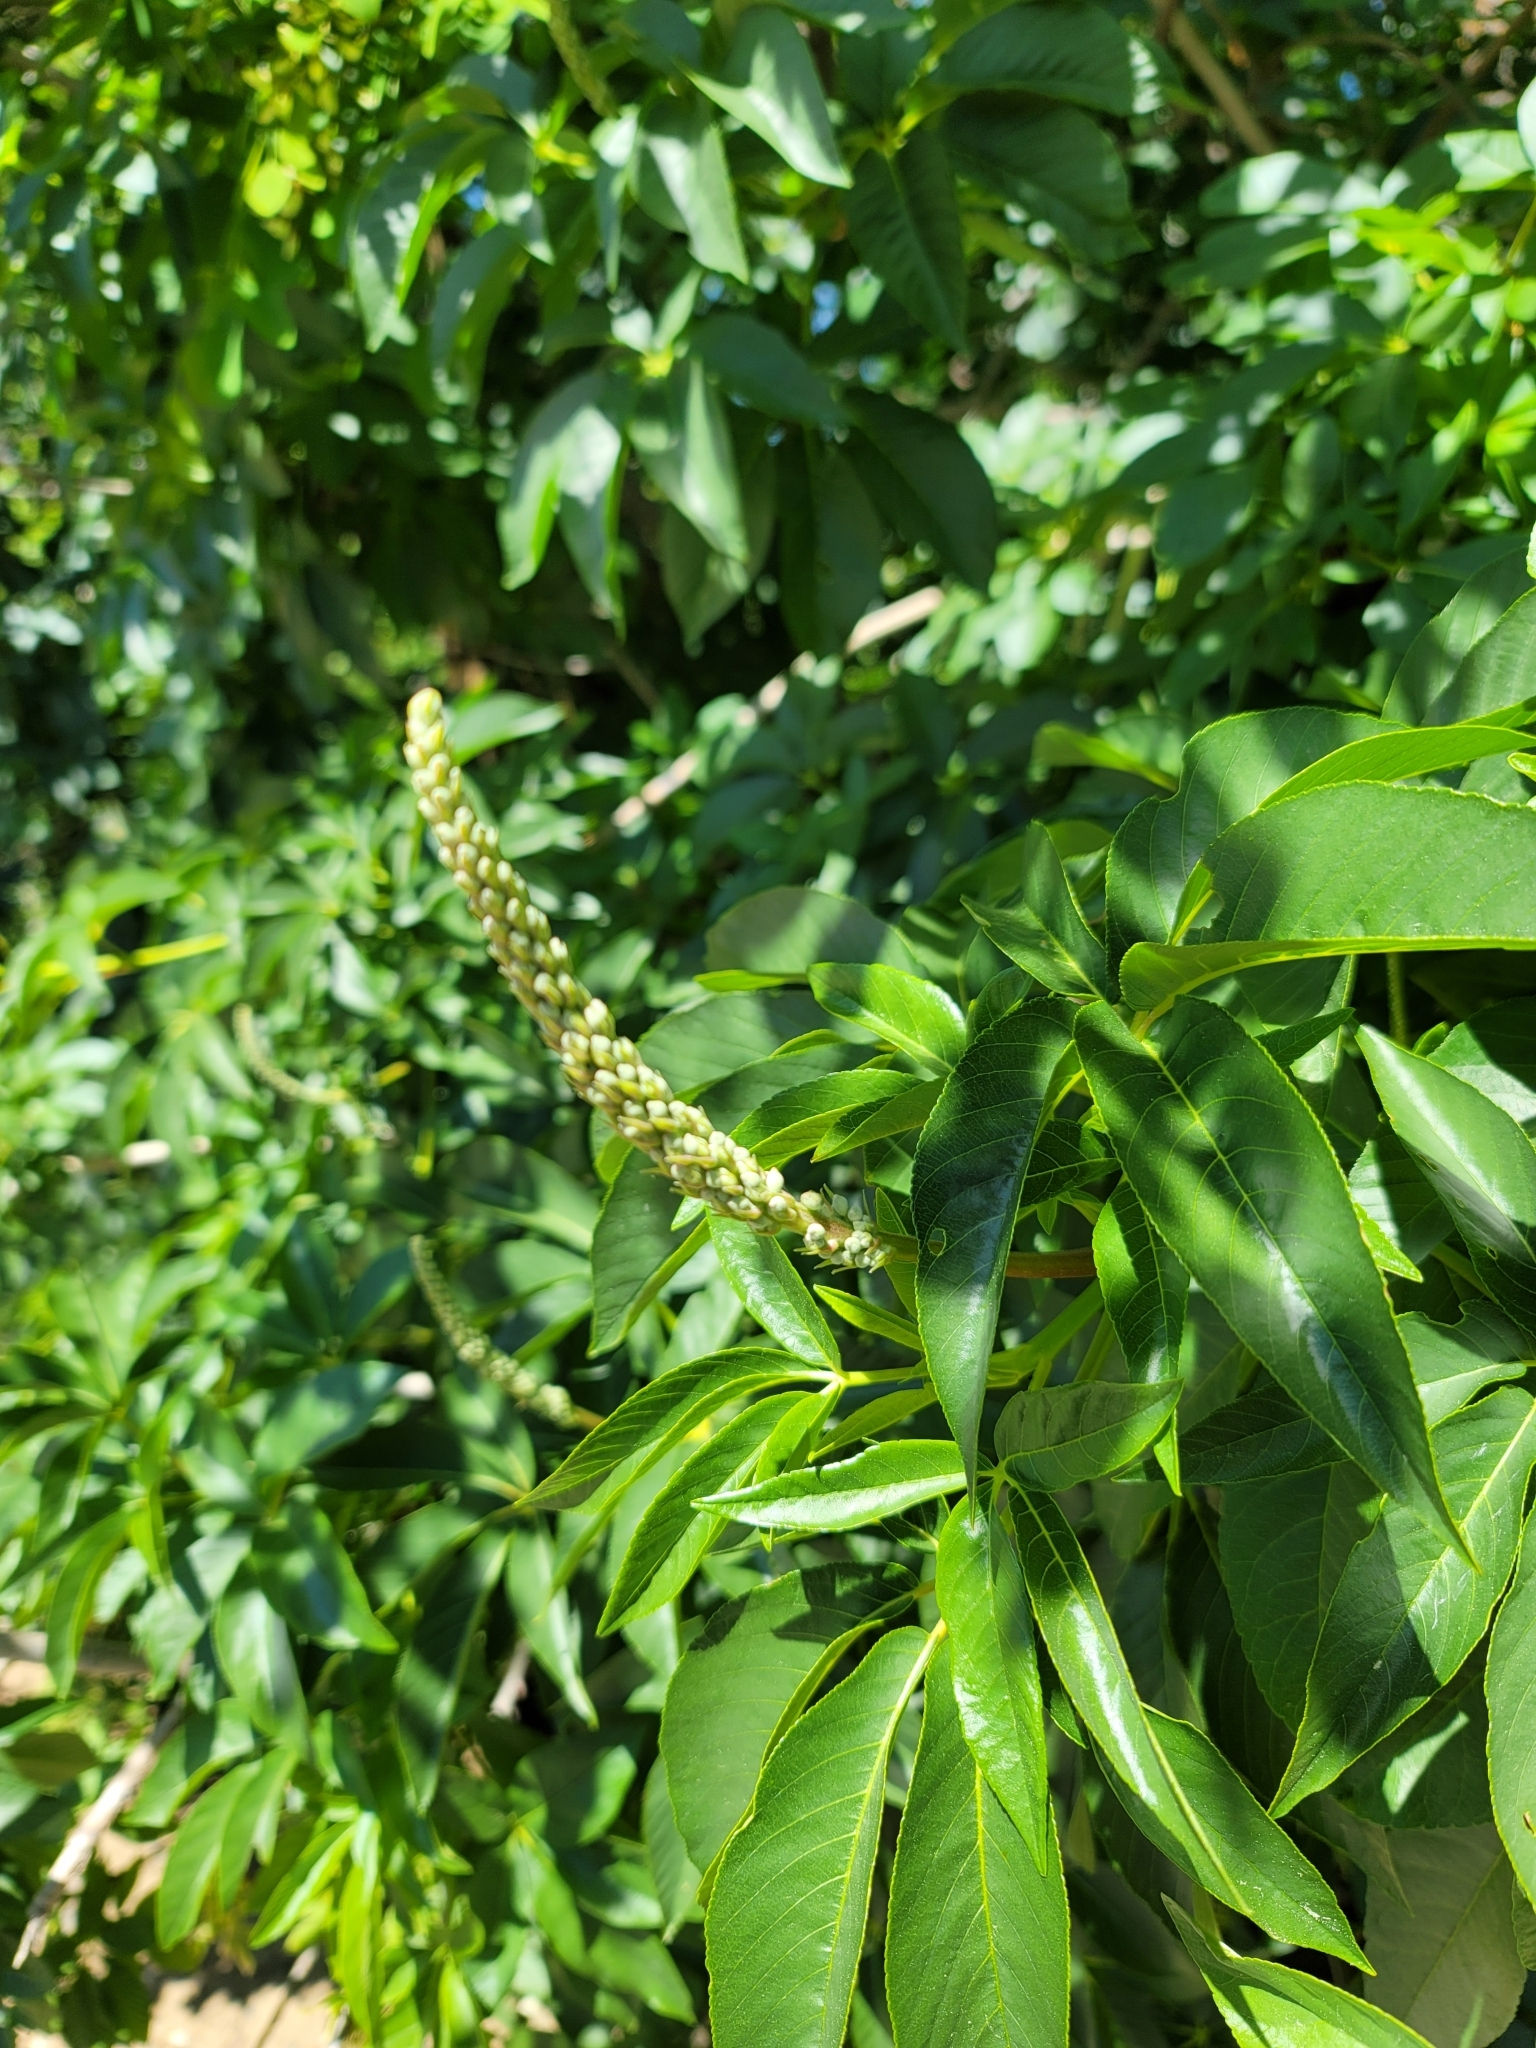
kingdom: Plantae
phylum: Tracheophyta
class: Magnoliopsida
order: Sapindales
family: Sapindaceae
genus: Aesculus
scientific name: Aesculus californica
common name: California buckeye
